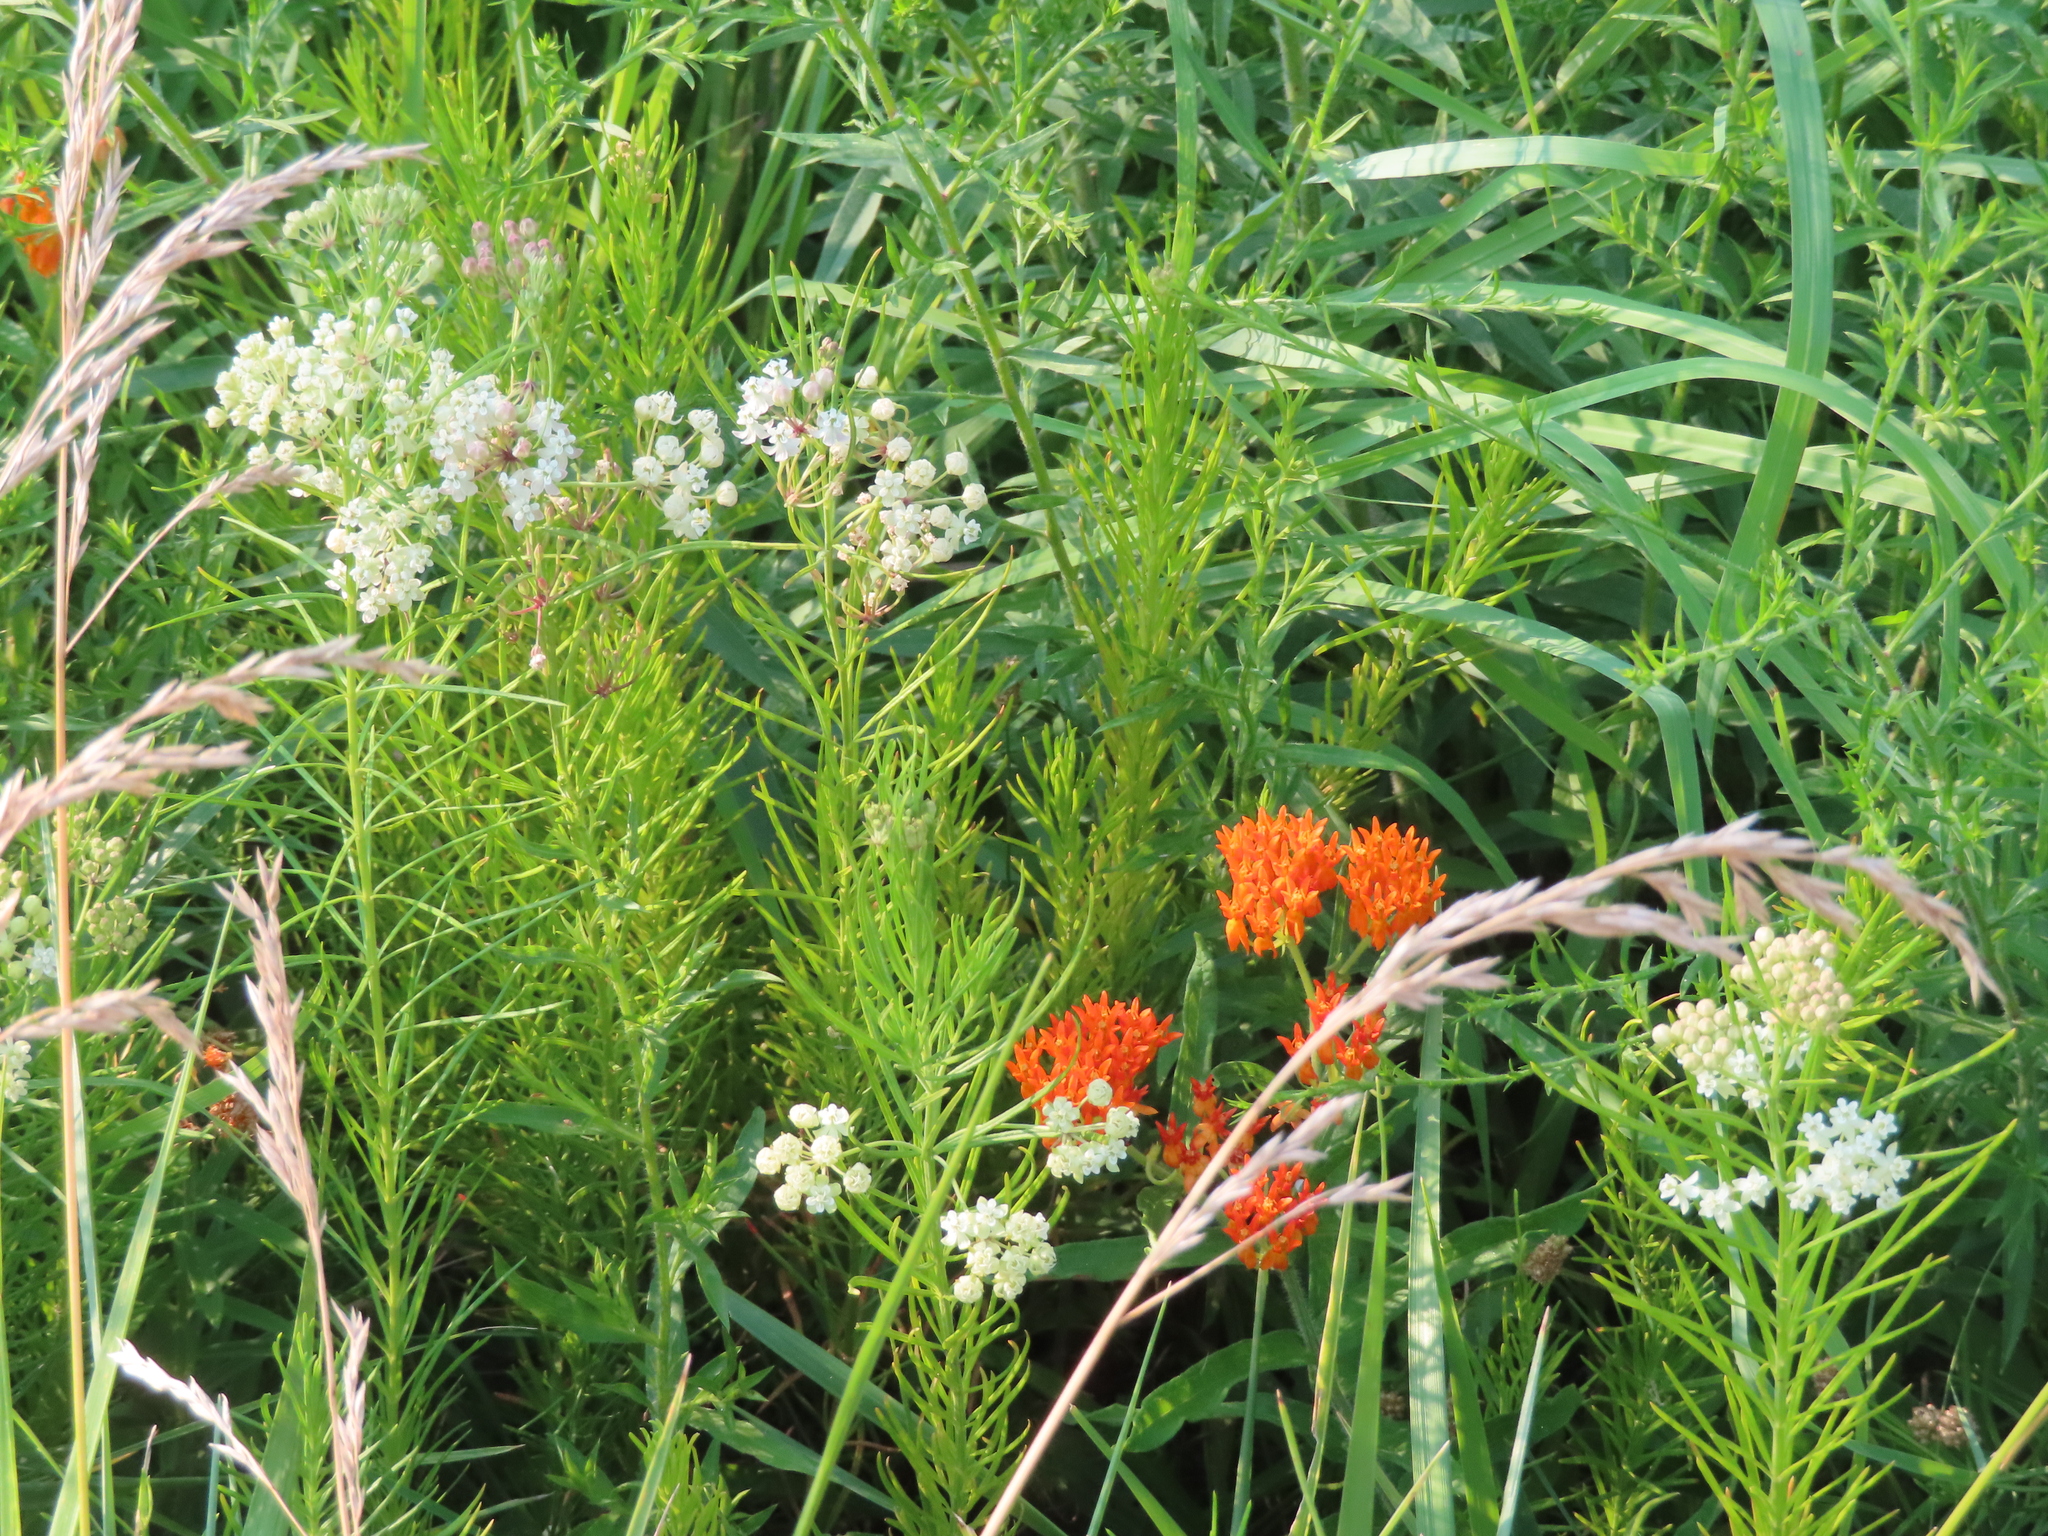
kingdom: Plantae
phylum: Tracheophyta
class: Magnoliopsida
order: Gentianales
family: Apocynaceae
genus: Asclepias
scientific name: Asclepias tuberosa
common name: Butterfly milkweed
